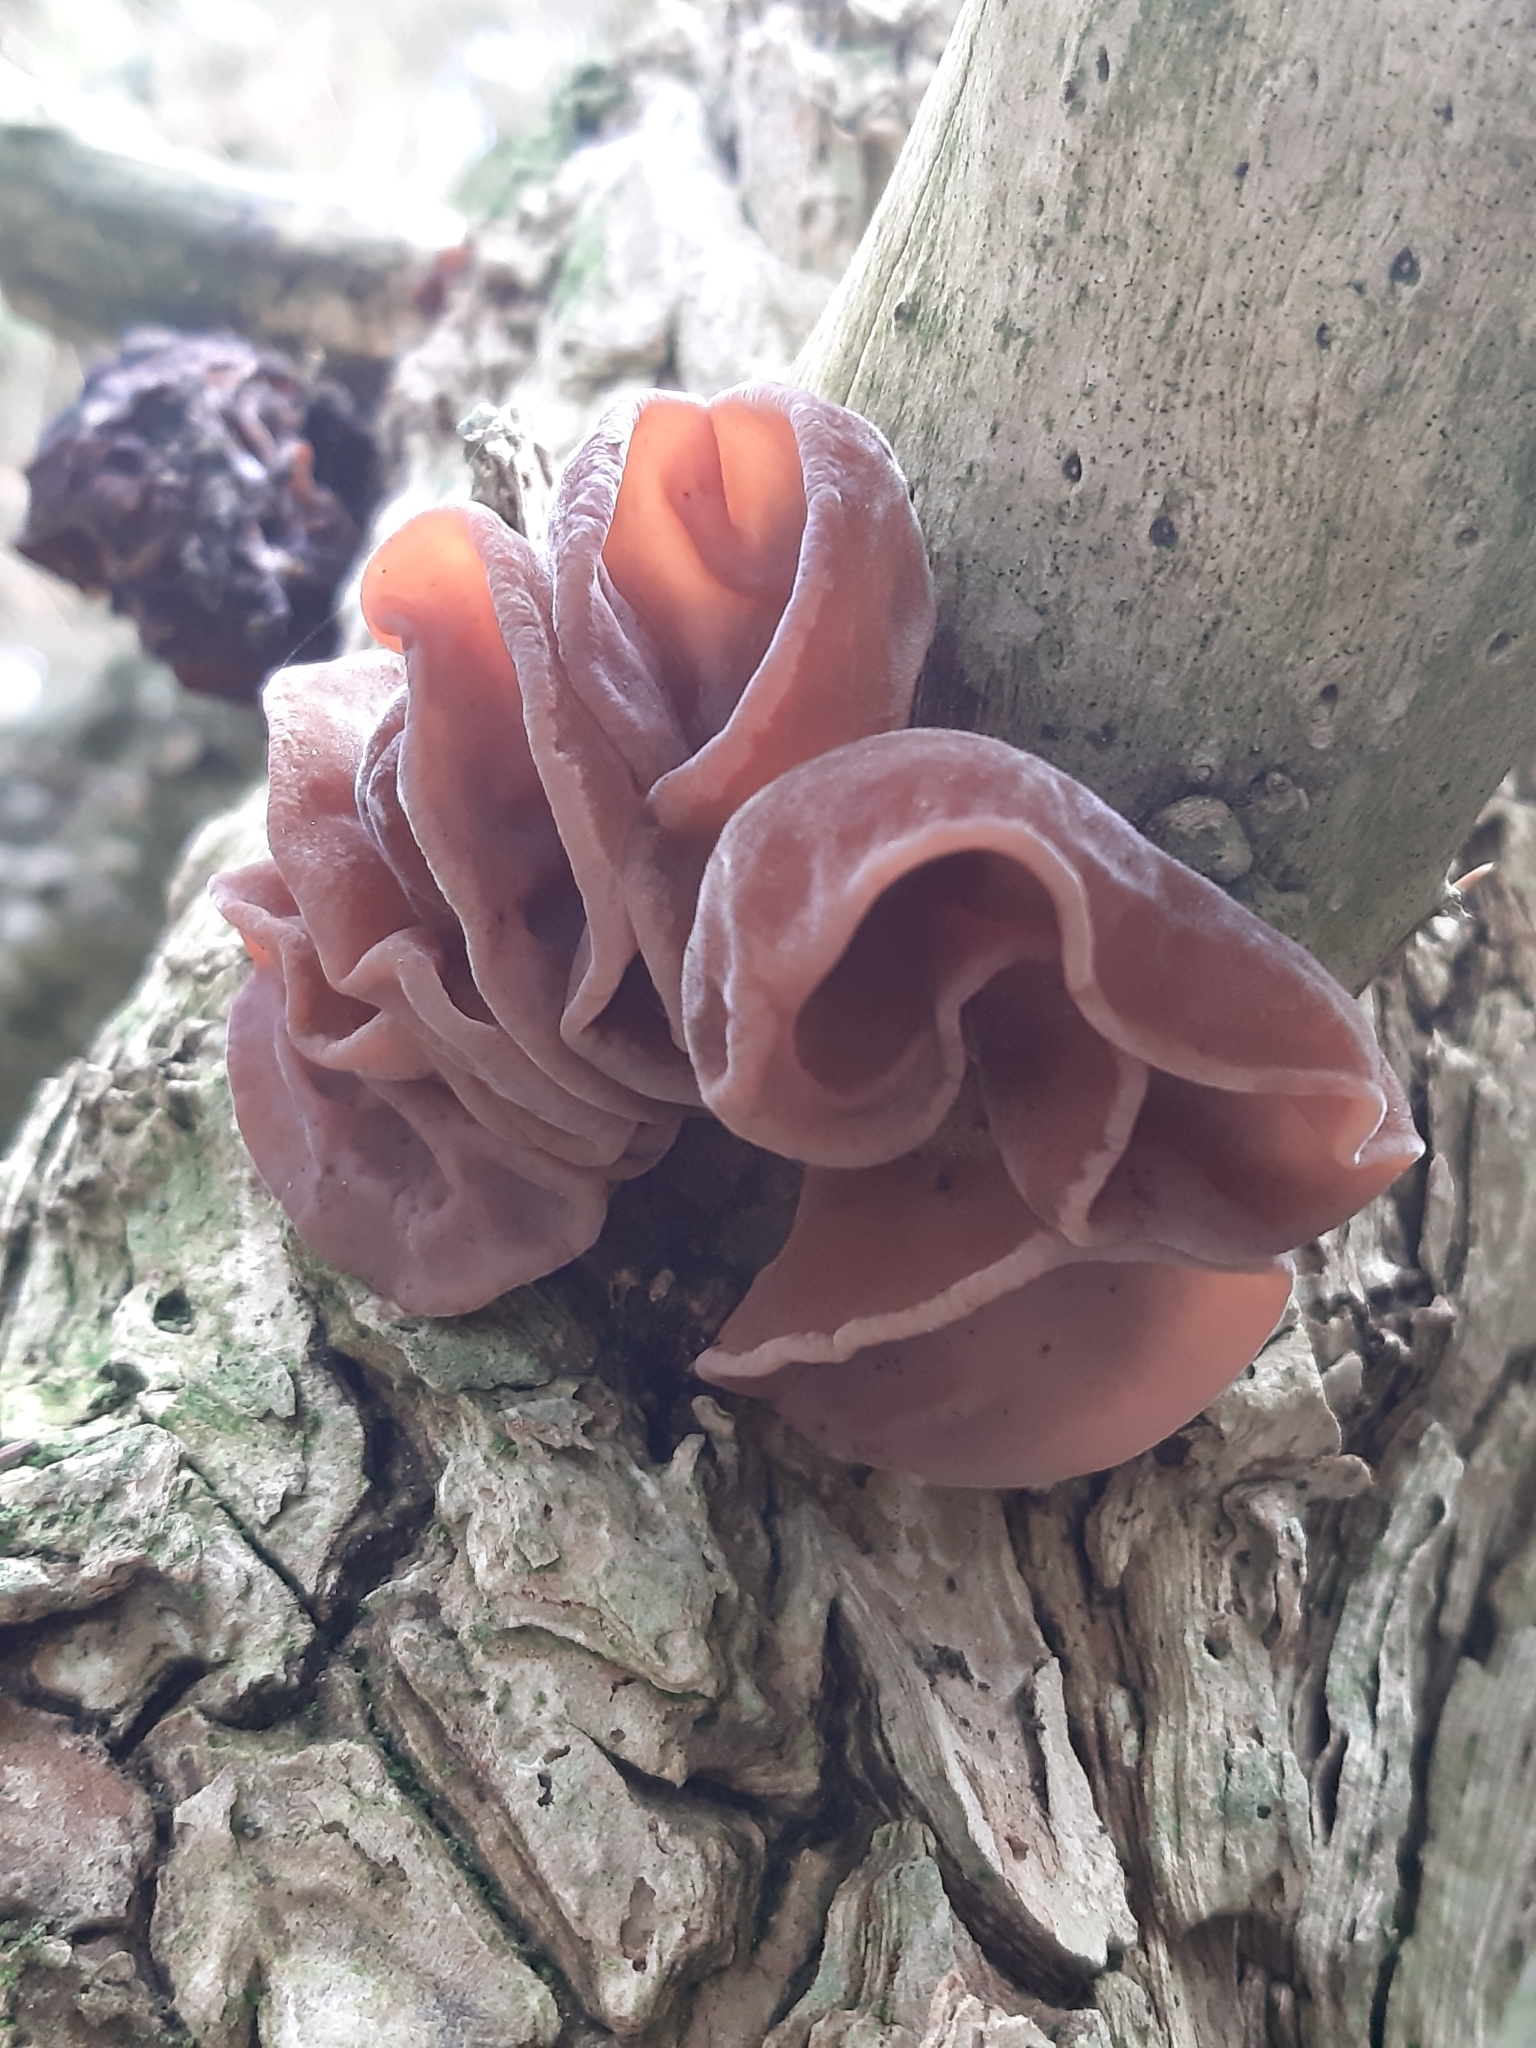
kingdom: Fungi
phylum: Basidiomycota
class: Agaricomycetes
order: Auriculariales
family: Auriculariaceae
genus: Auricularia
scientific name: Auricularia auricula-judae
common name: Jelly ear
